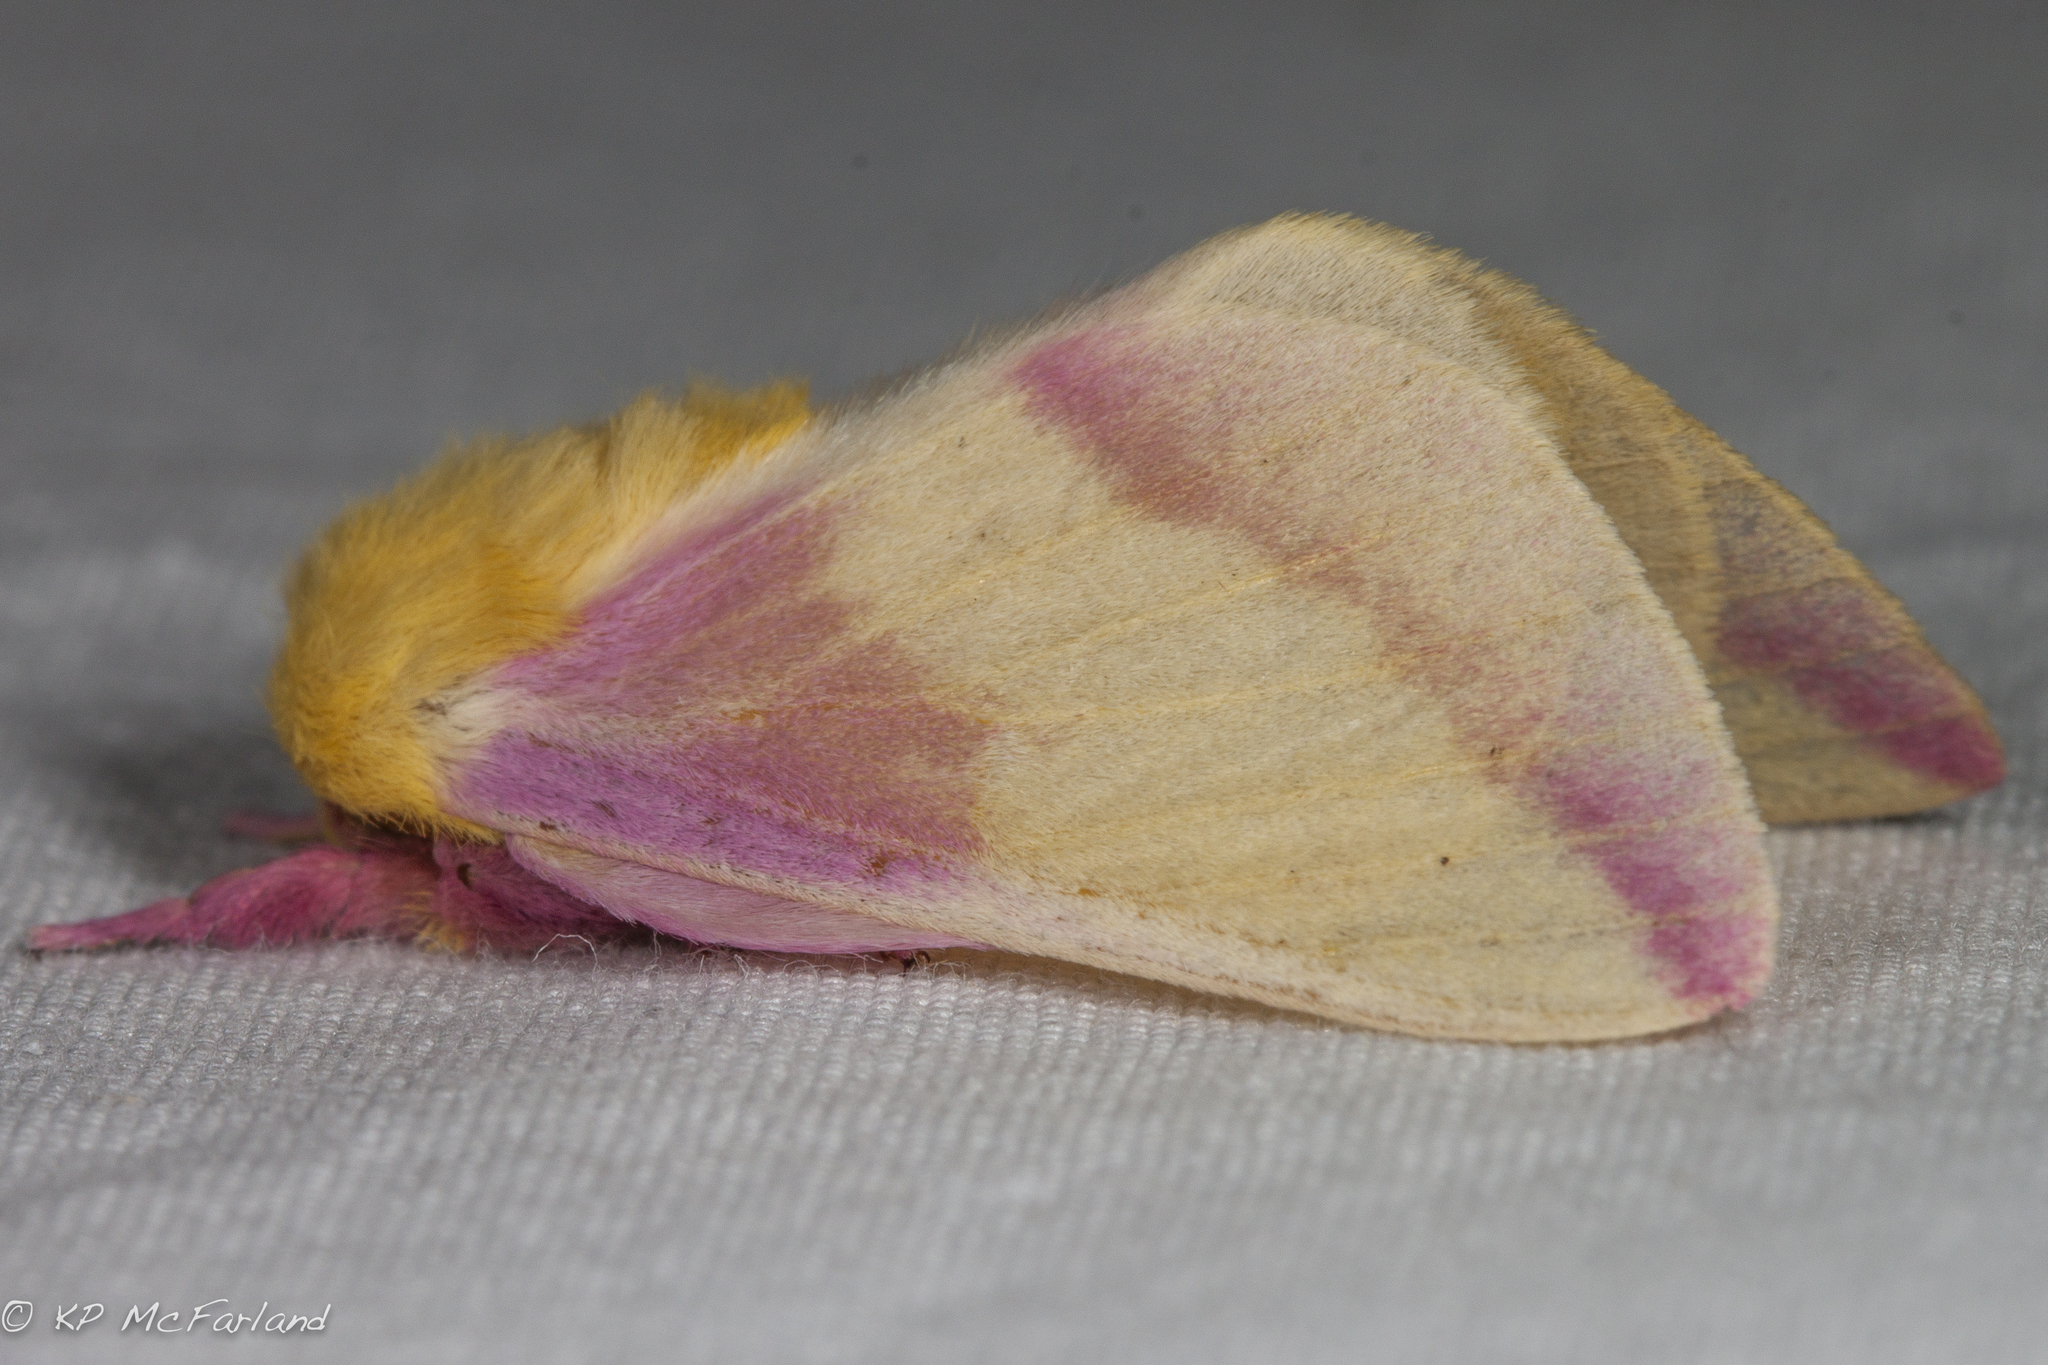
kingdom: Animalia
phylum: Arthropoda
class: Insecta
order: Lepidoptera
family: Saturniidae
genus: Dryocampa
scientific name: Dryocampa rubicunda
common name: Rosy maple moth
